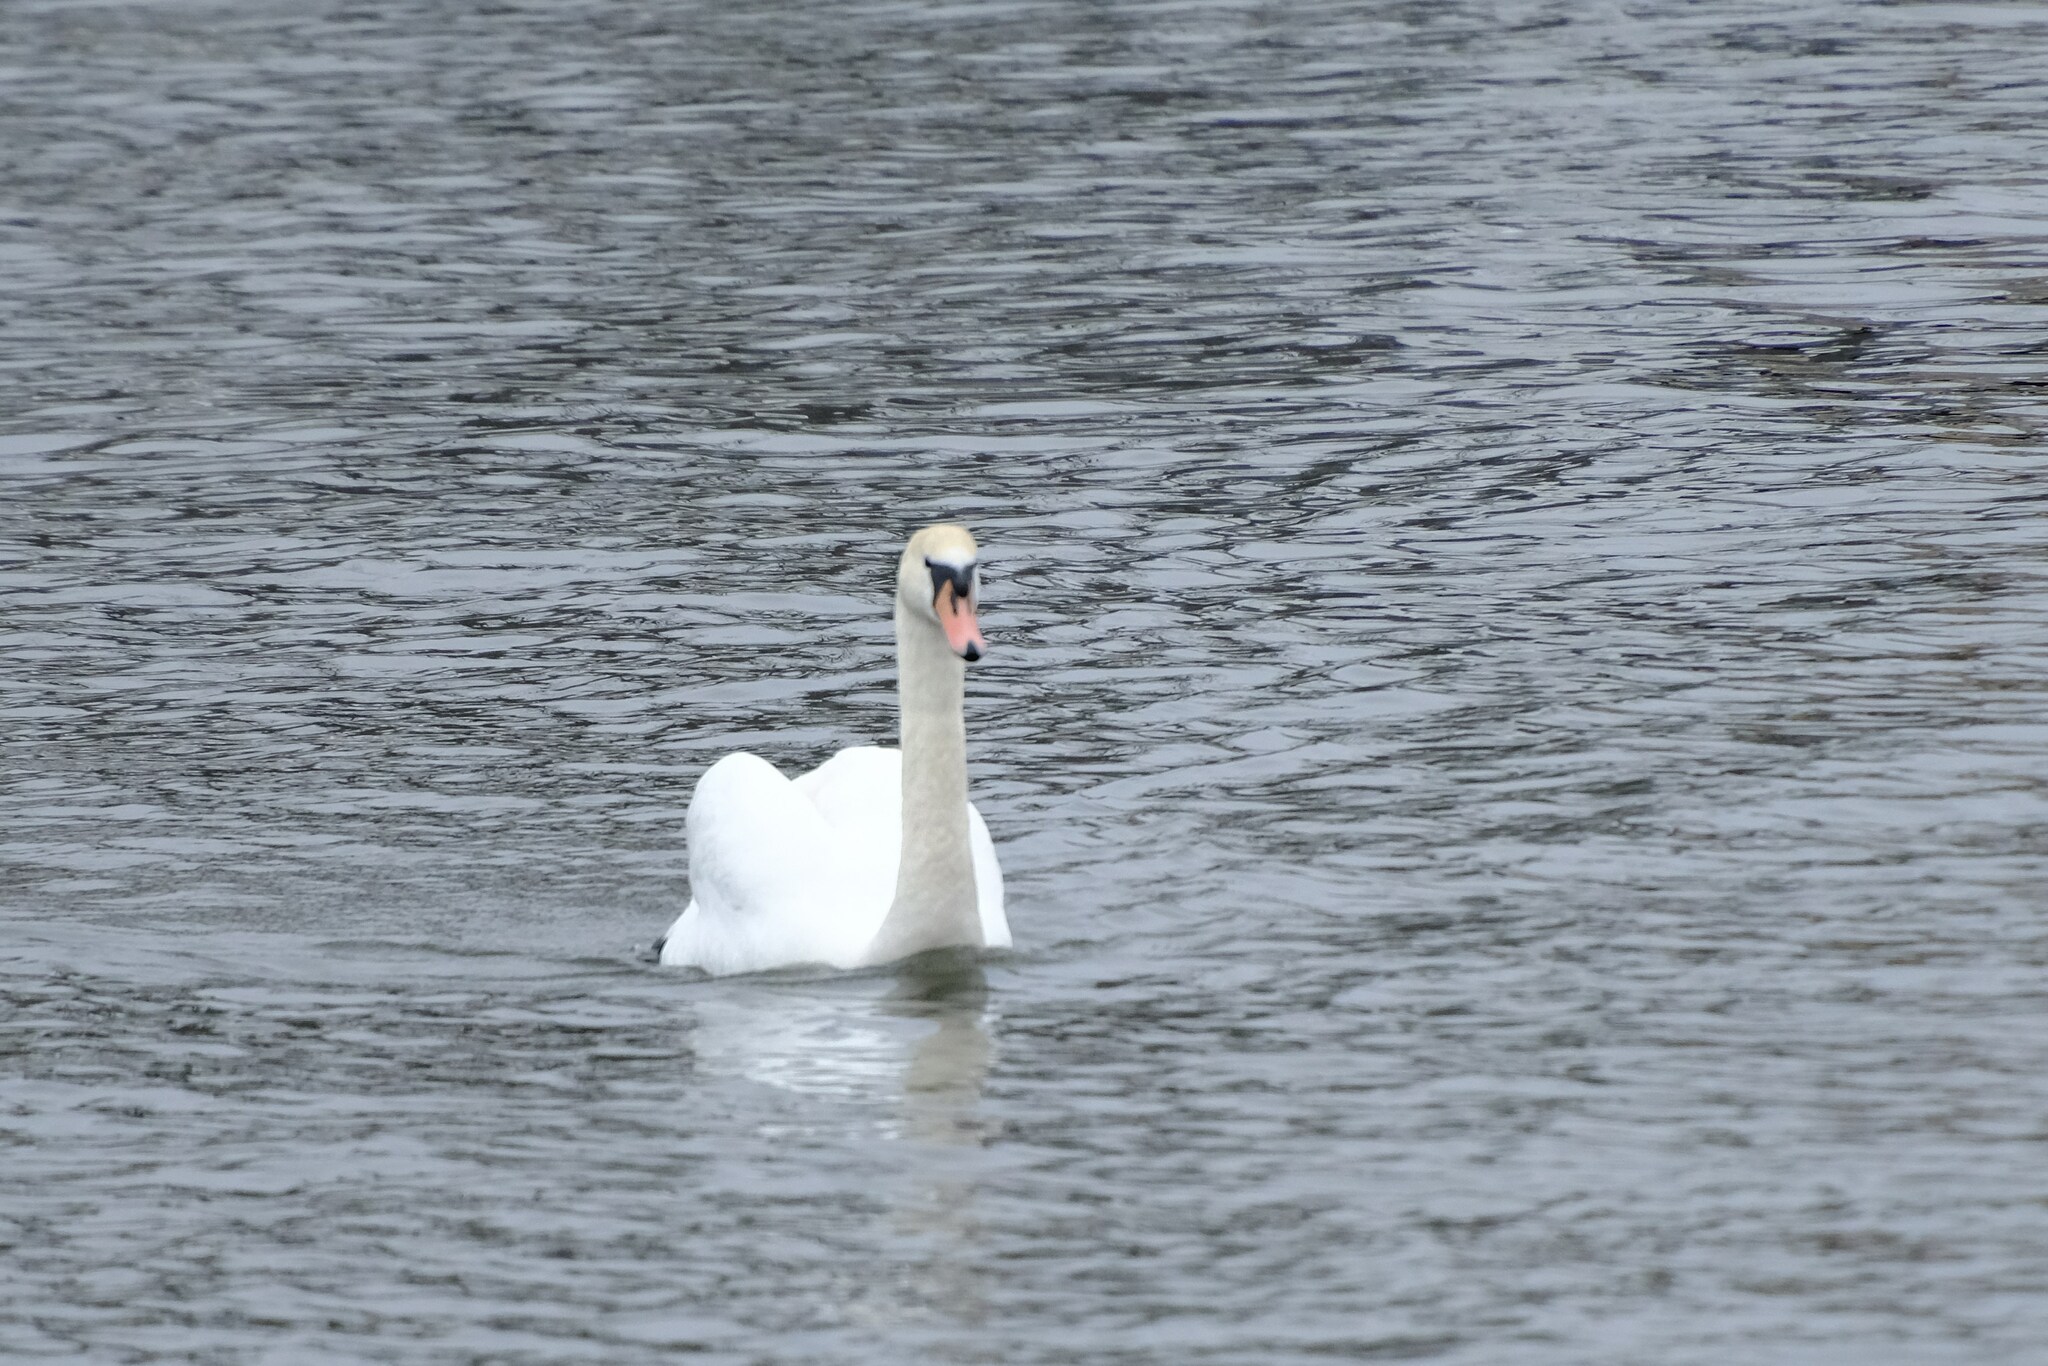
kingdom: Animalia
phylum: Chordata
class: Aves
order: Anseriformes
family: Anatidae
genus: Cygnus
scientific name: Cygnus olor
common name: Mute swan
